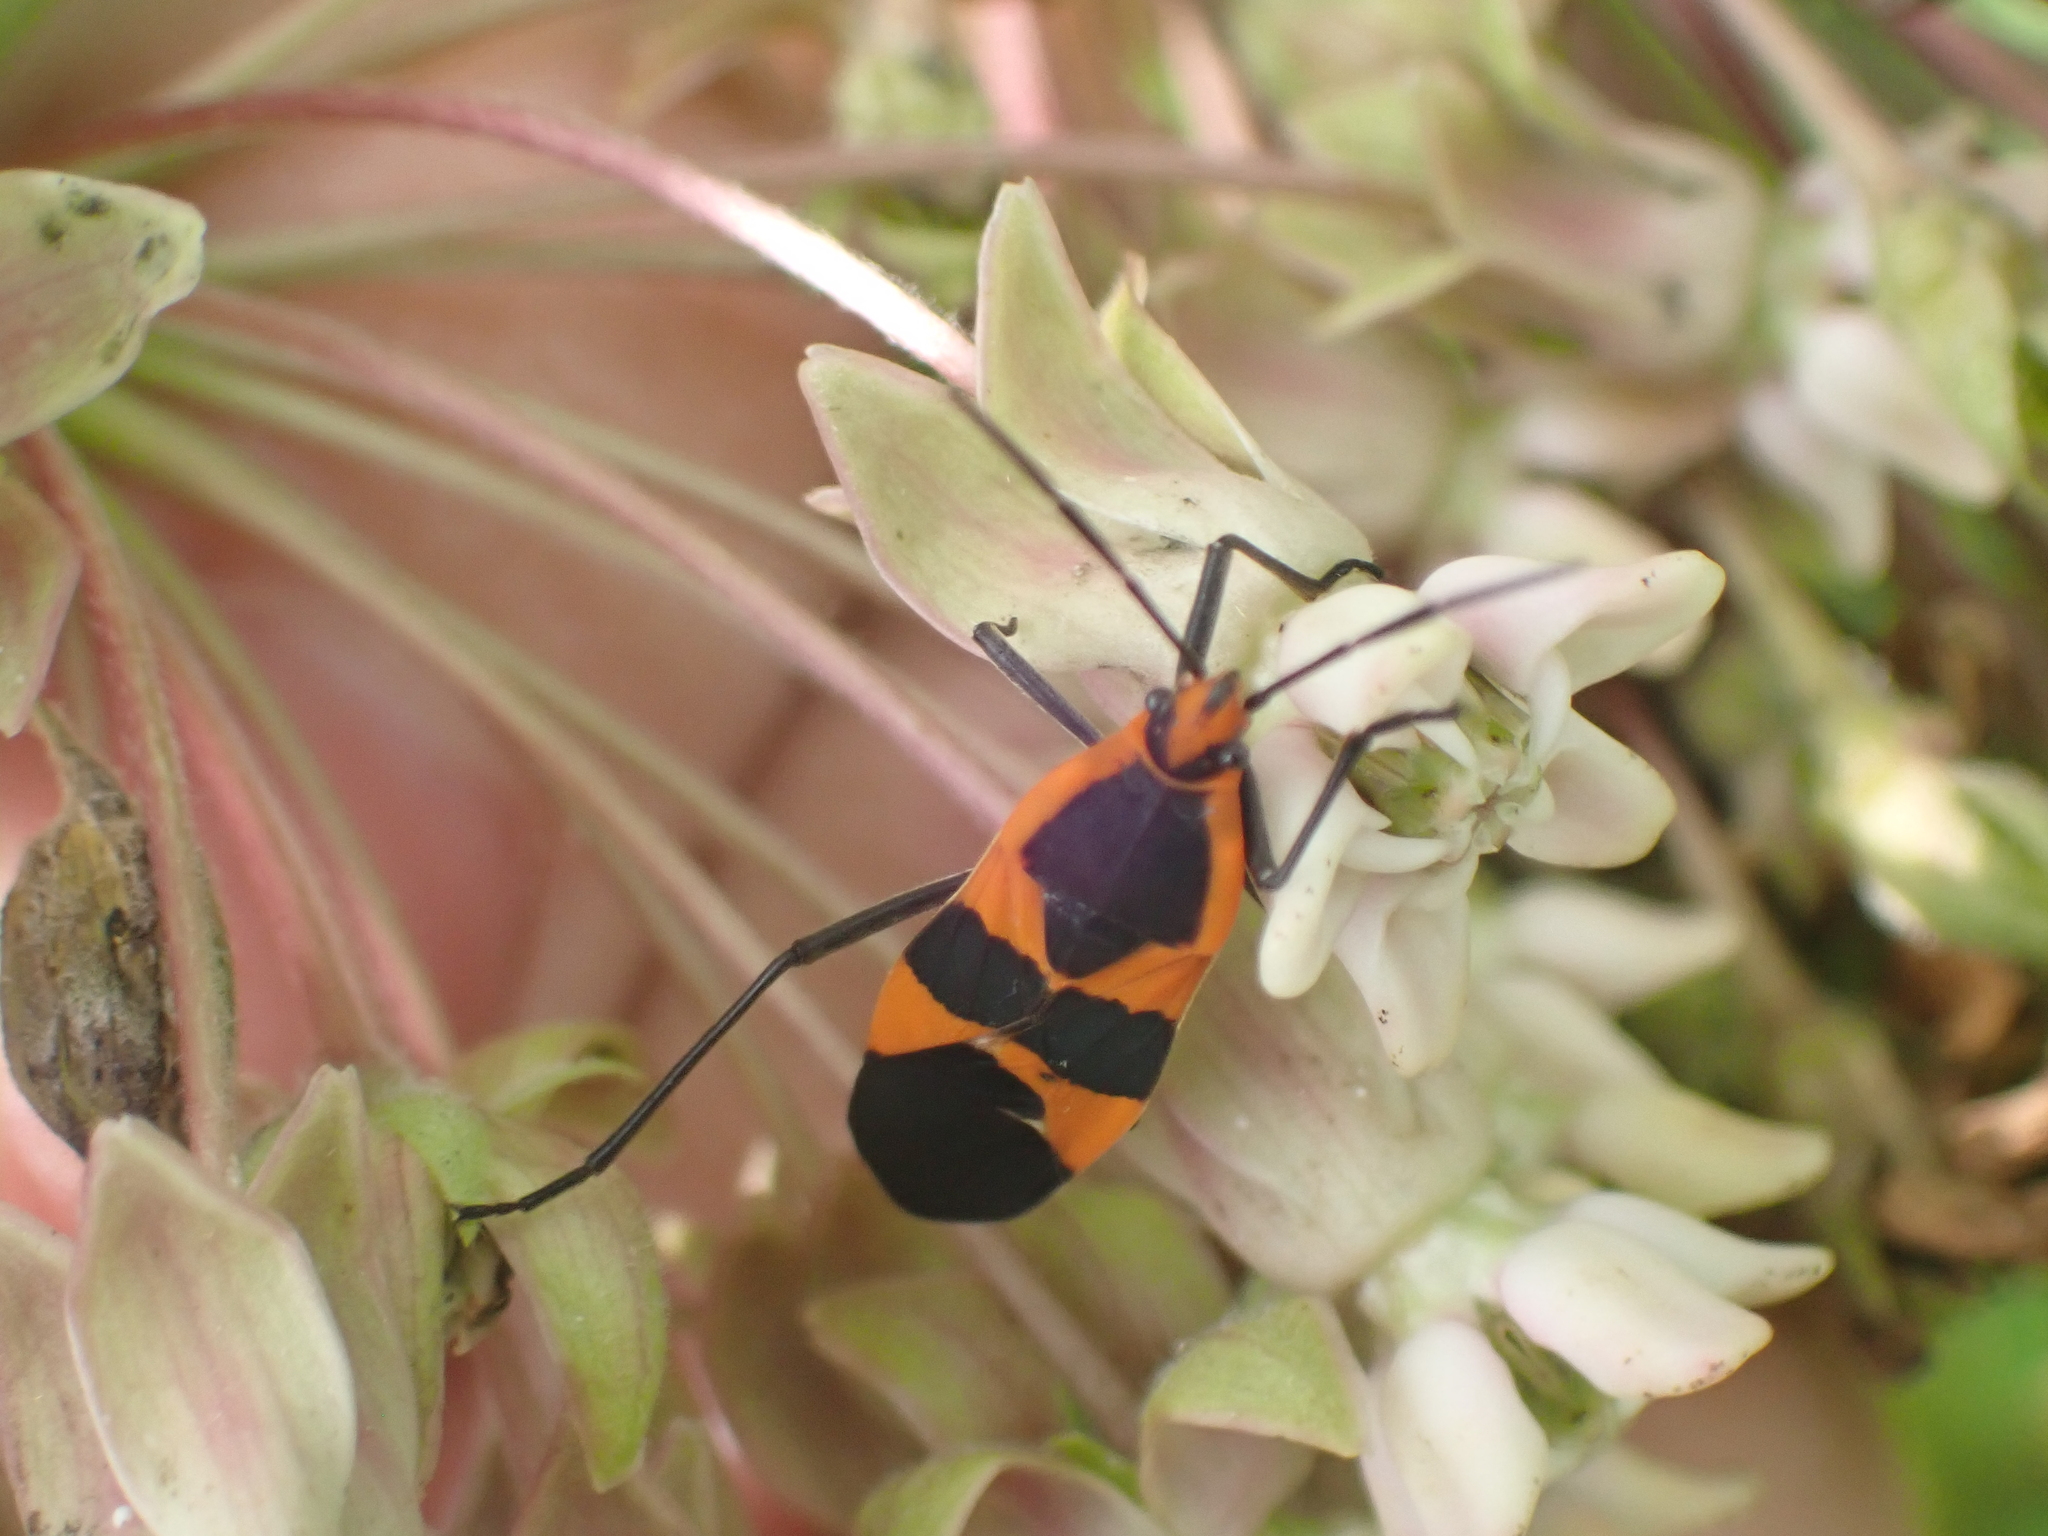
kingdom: Animalia
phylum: Arthropoda
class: Insecta
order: Hemiptera
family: Lygaeidae
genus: Oncopeltus
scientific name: Oncopeltus fasciatus
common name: Large milkweed bug
